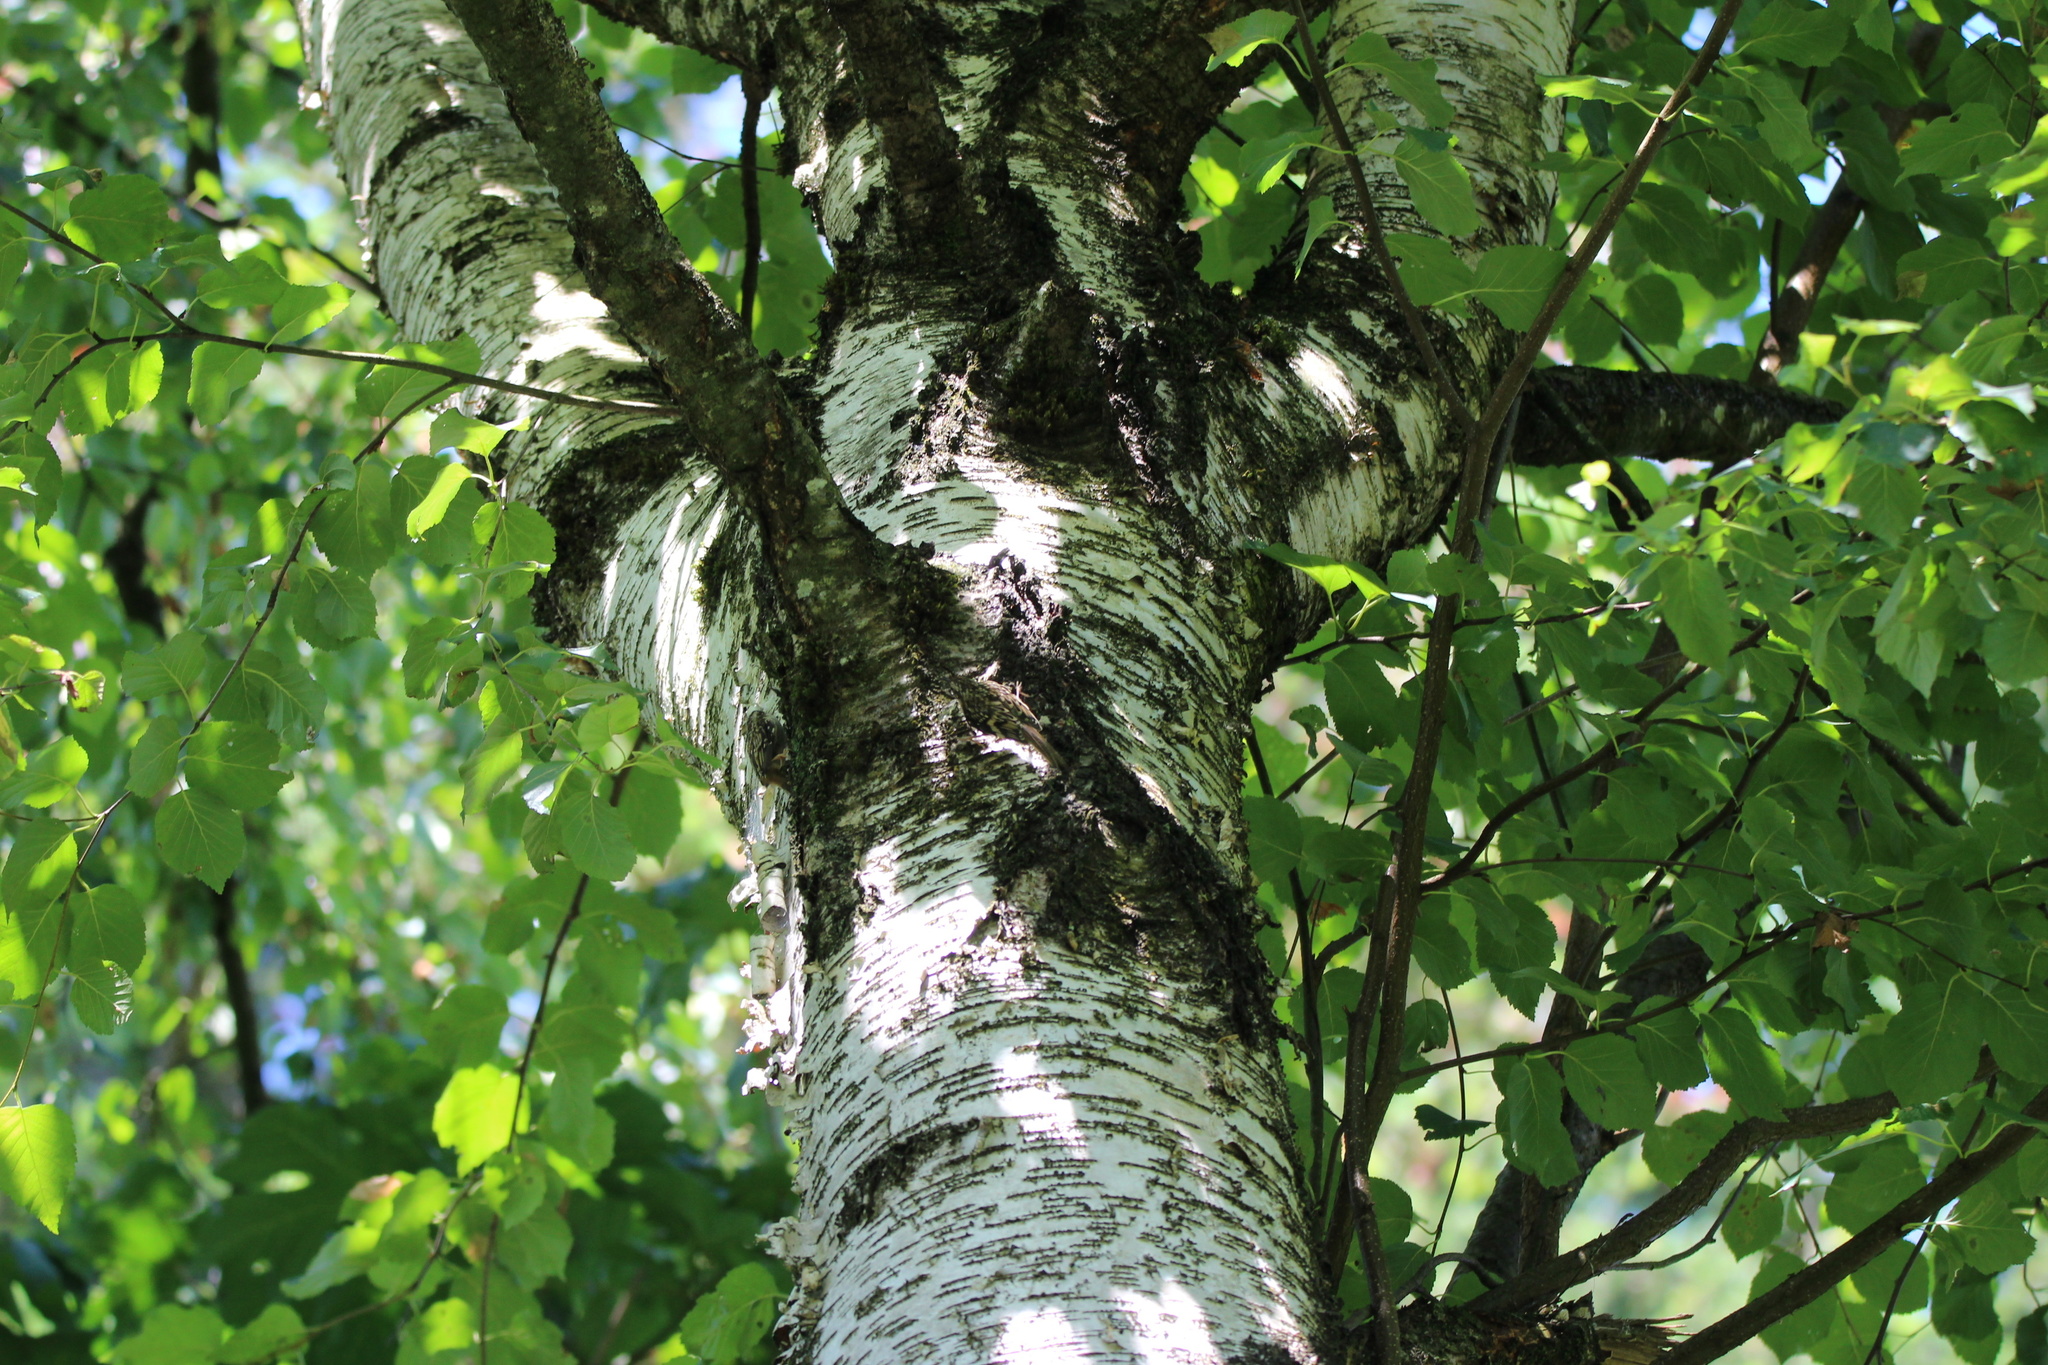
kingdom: Animalia
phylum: Chordata
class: Aves
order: Passeriformes
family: Certhiidae
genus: Certhia
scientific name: Certhia americana
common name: Brown creeper
